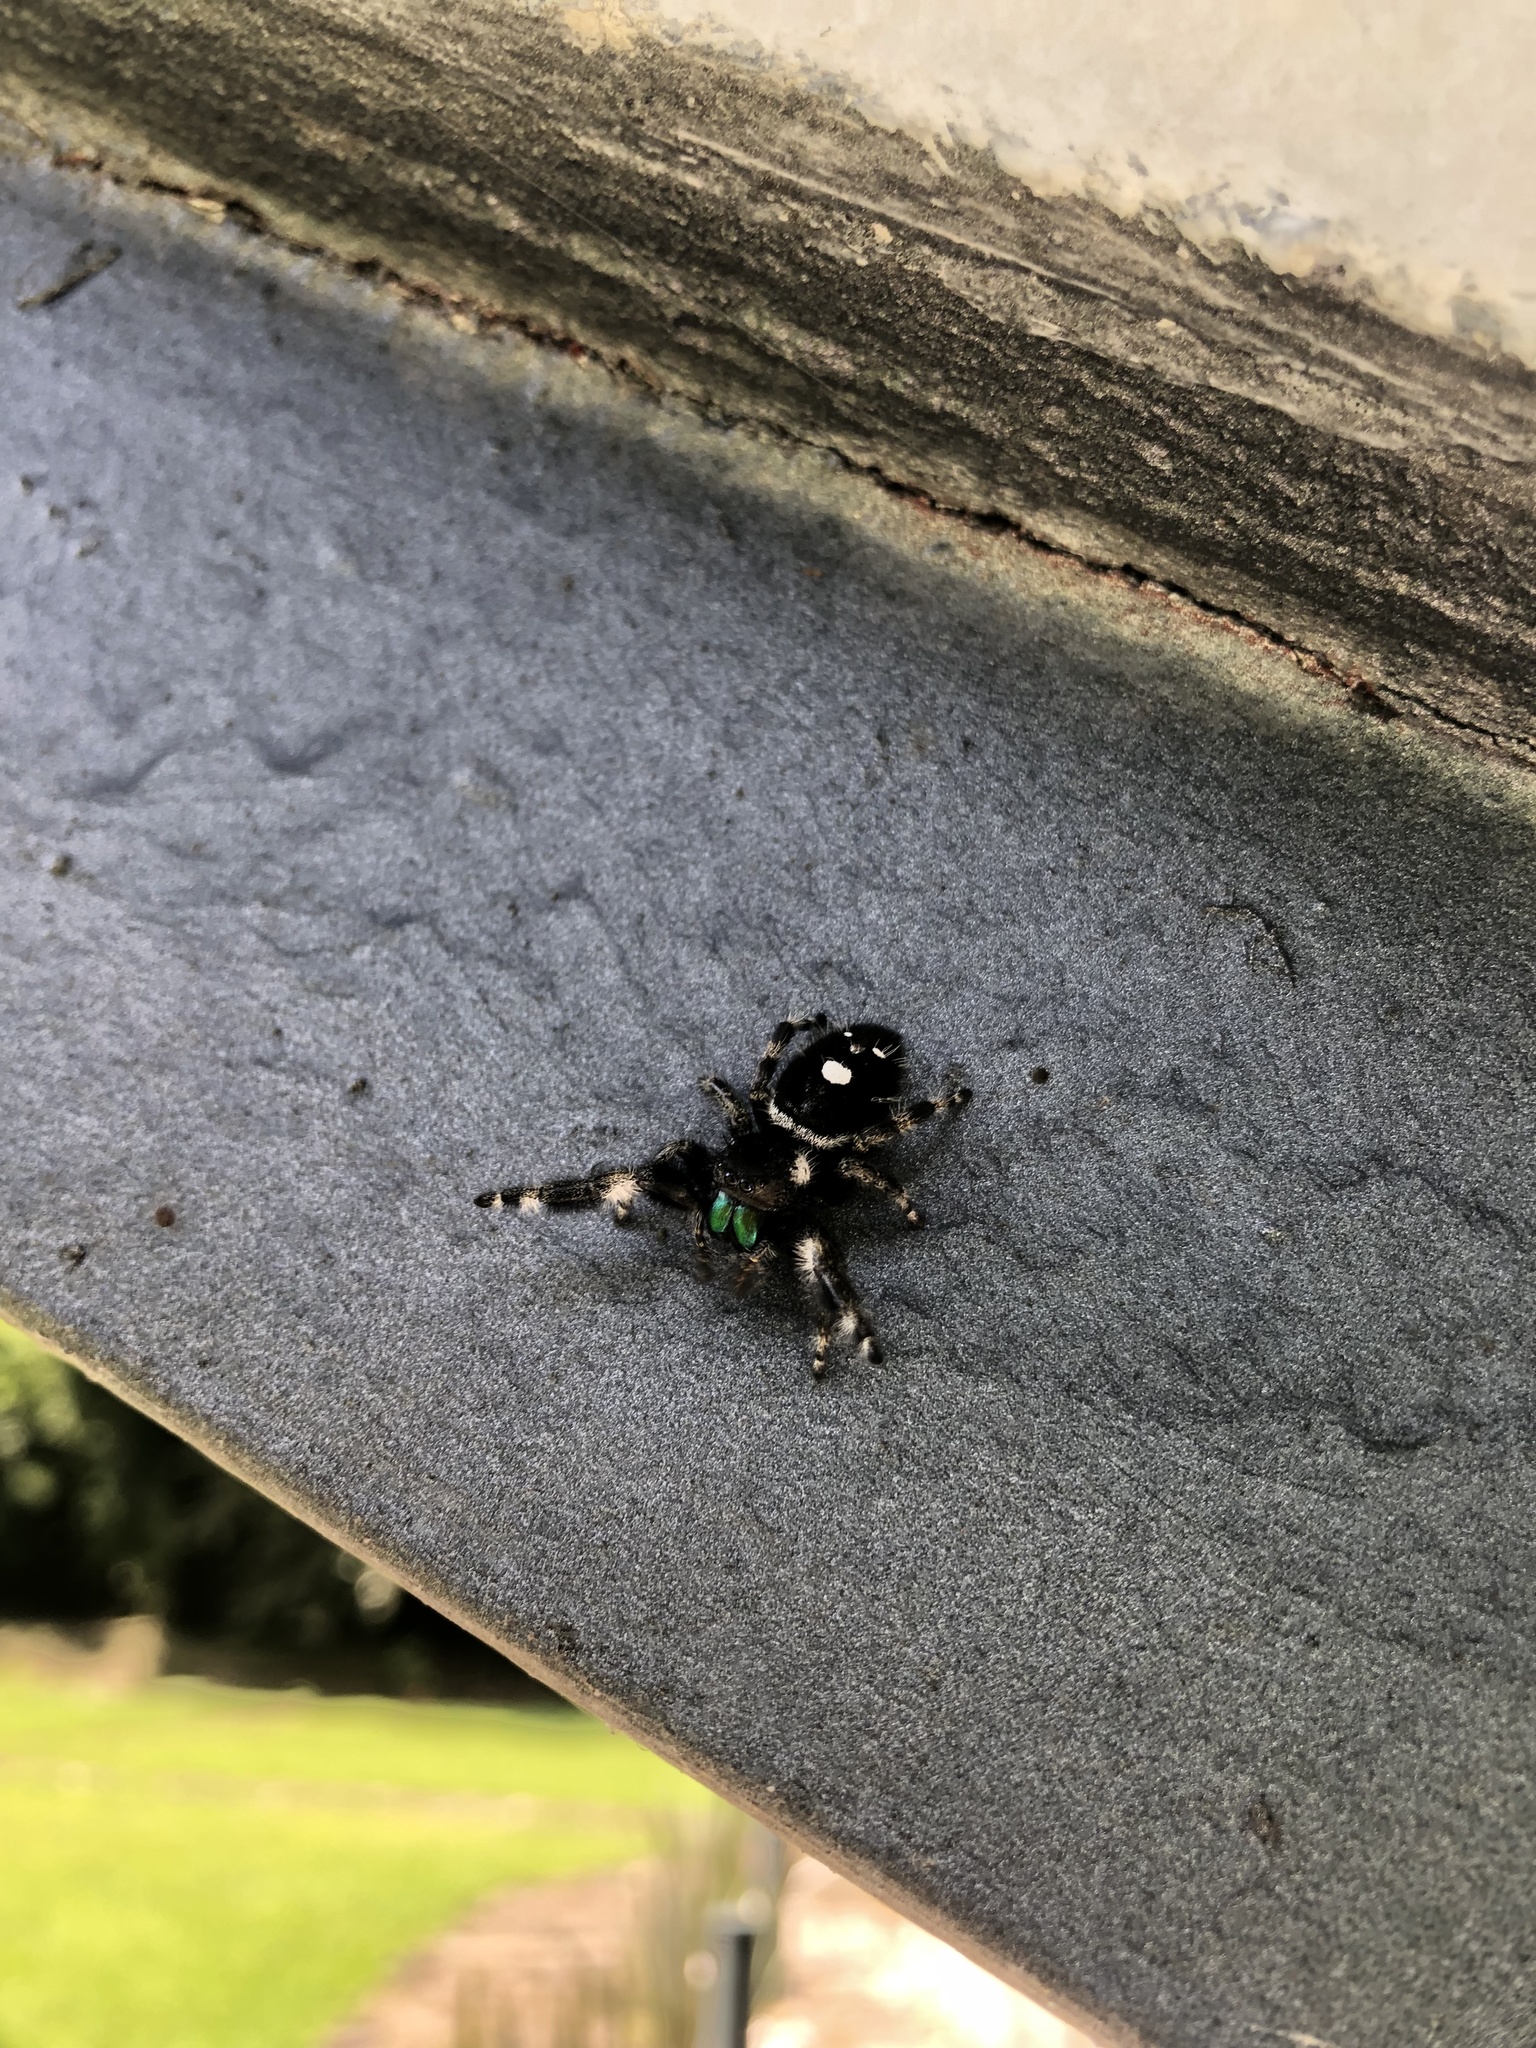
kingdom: Animalia
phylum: Arthropoda
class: Arachnida
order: Araneae
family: Salticidae
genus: Phidippus
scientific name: Phidippus audax
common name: Bold jumper
